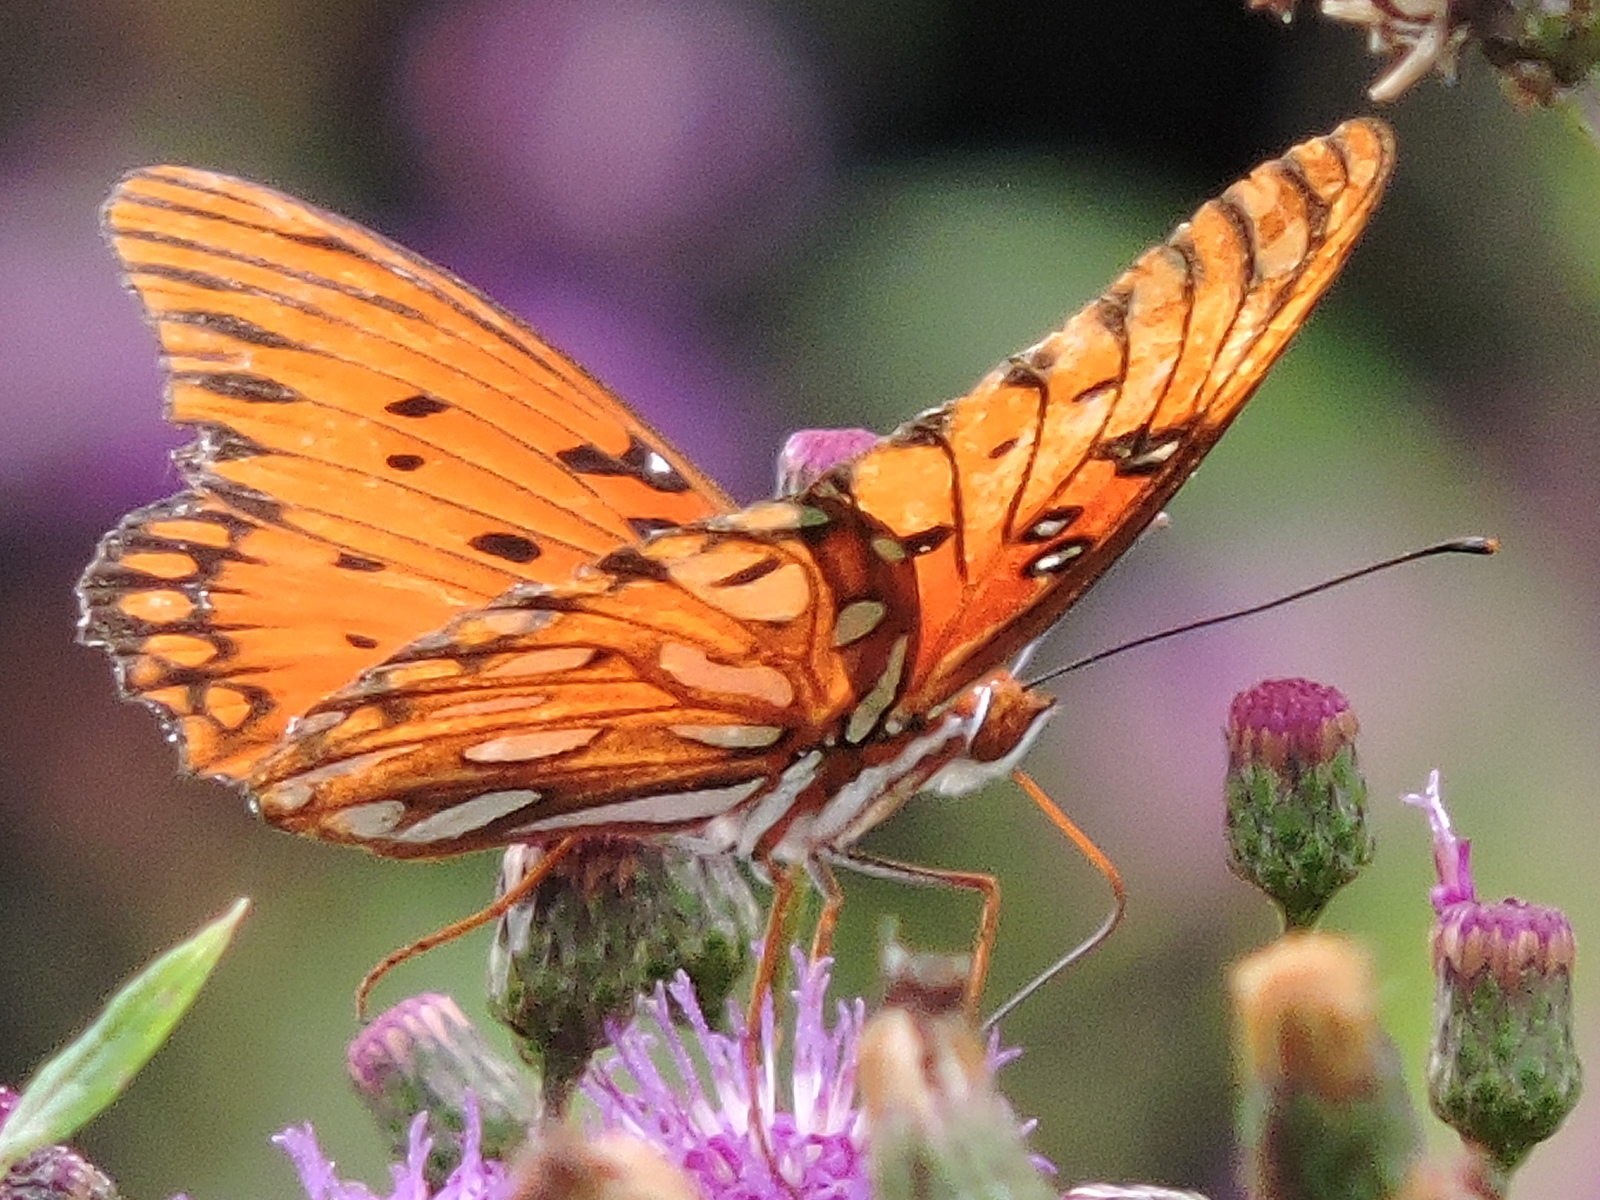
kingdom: Animalia
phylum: Arthropoda
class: Insecta
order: Lepidoptera
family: Nymphalidae
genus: Dione
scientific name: Dione vanillae
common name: Gulf fritillary
